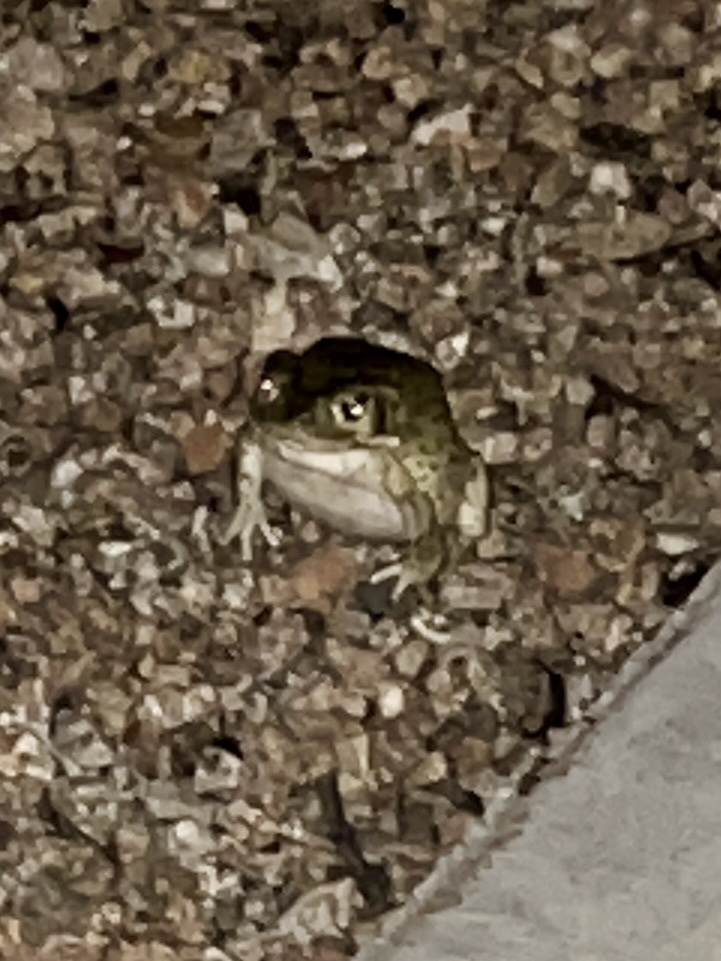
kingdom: Animalia
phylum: Chordata
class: Amphibia
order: Anura
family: Bufonidae
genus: Incilius
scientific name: Incilius alvarius
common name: Sonoran desert toad
